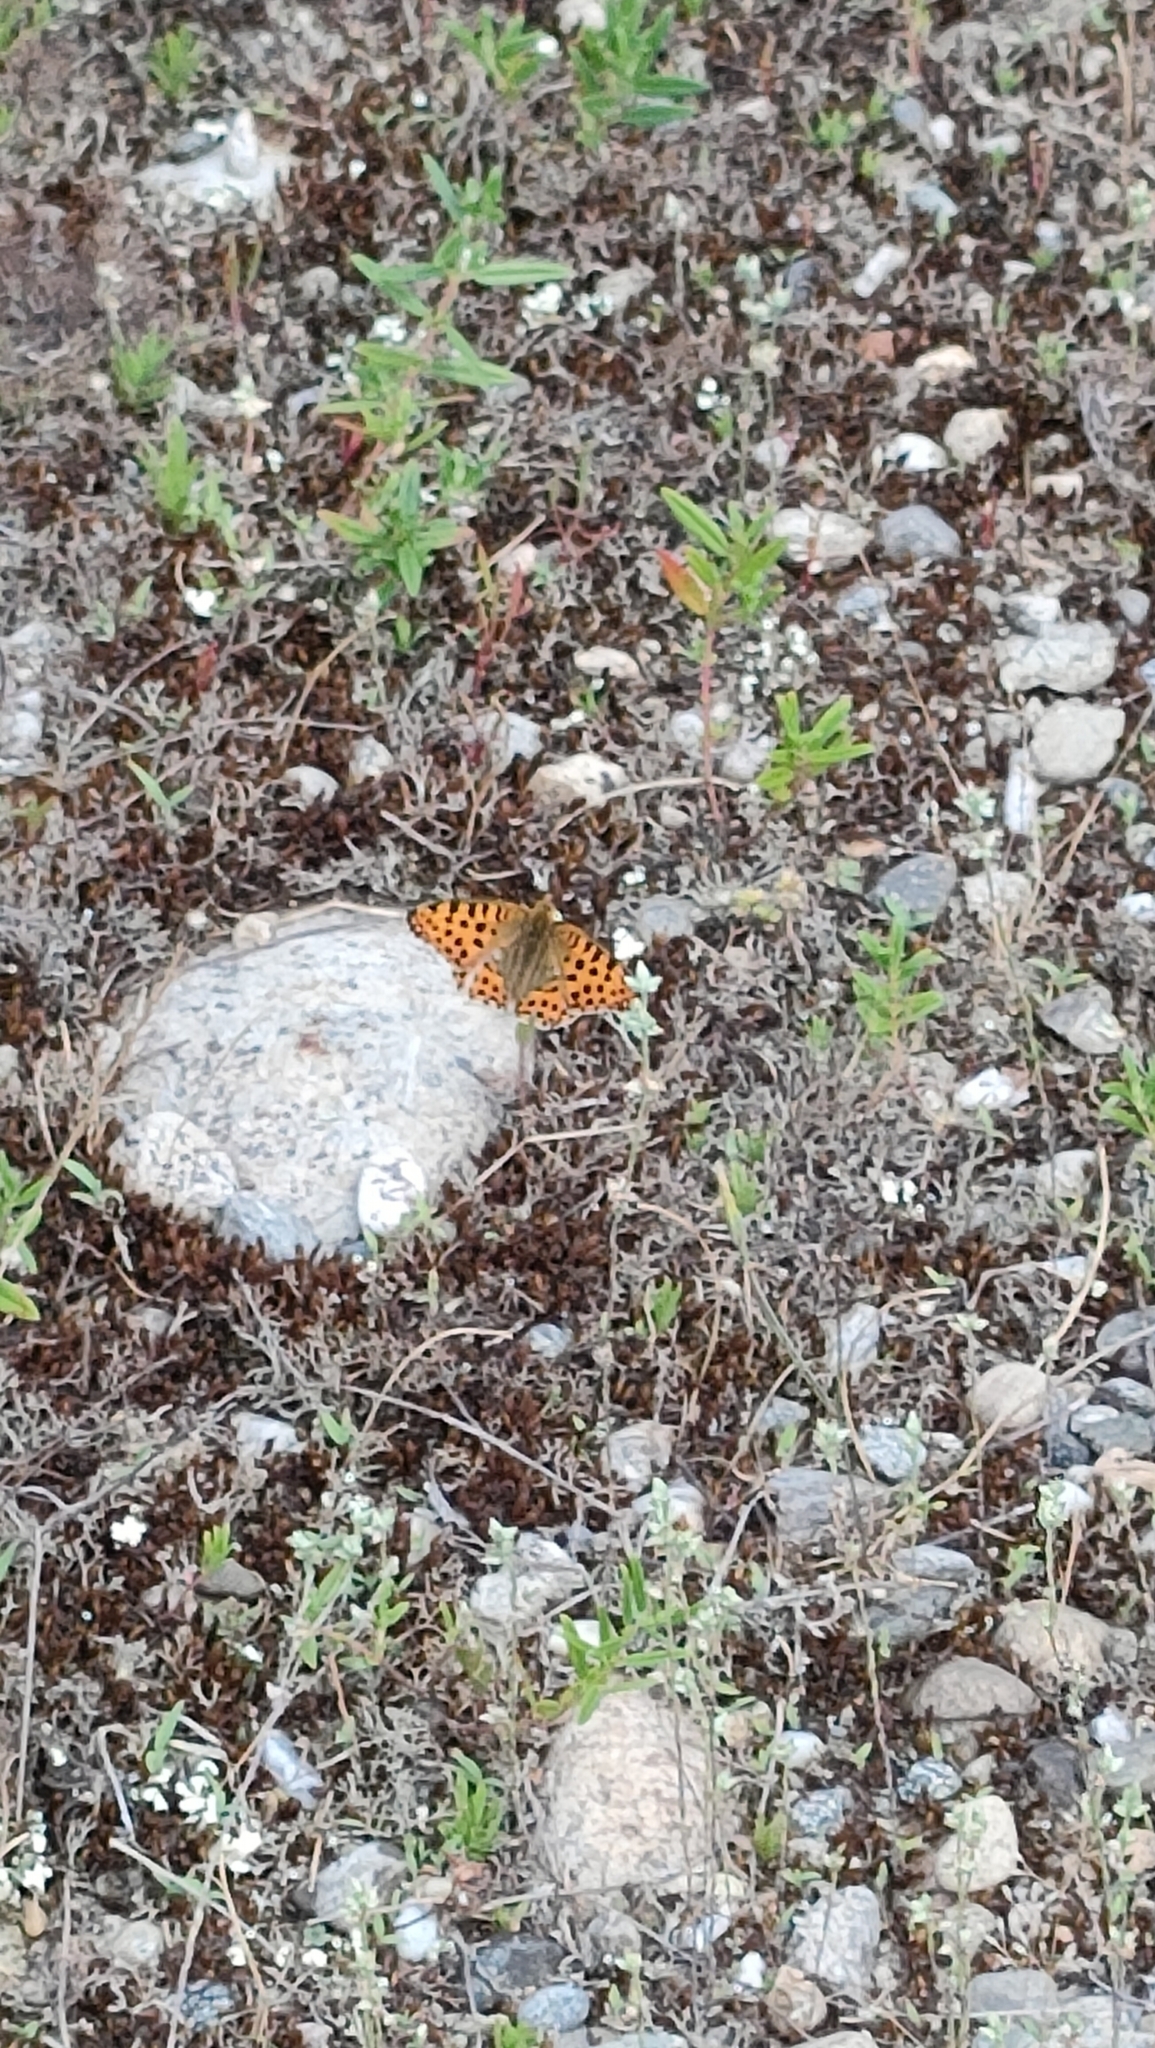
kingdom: Animalia
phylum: Arthropoda
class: Insecta
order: Lepidoptera
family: Nymphalidae
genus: Issoria
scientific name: Issoria lathonia
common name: Queen of spain fritillary
